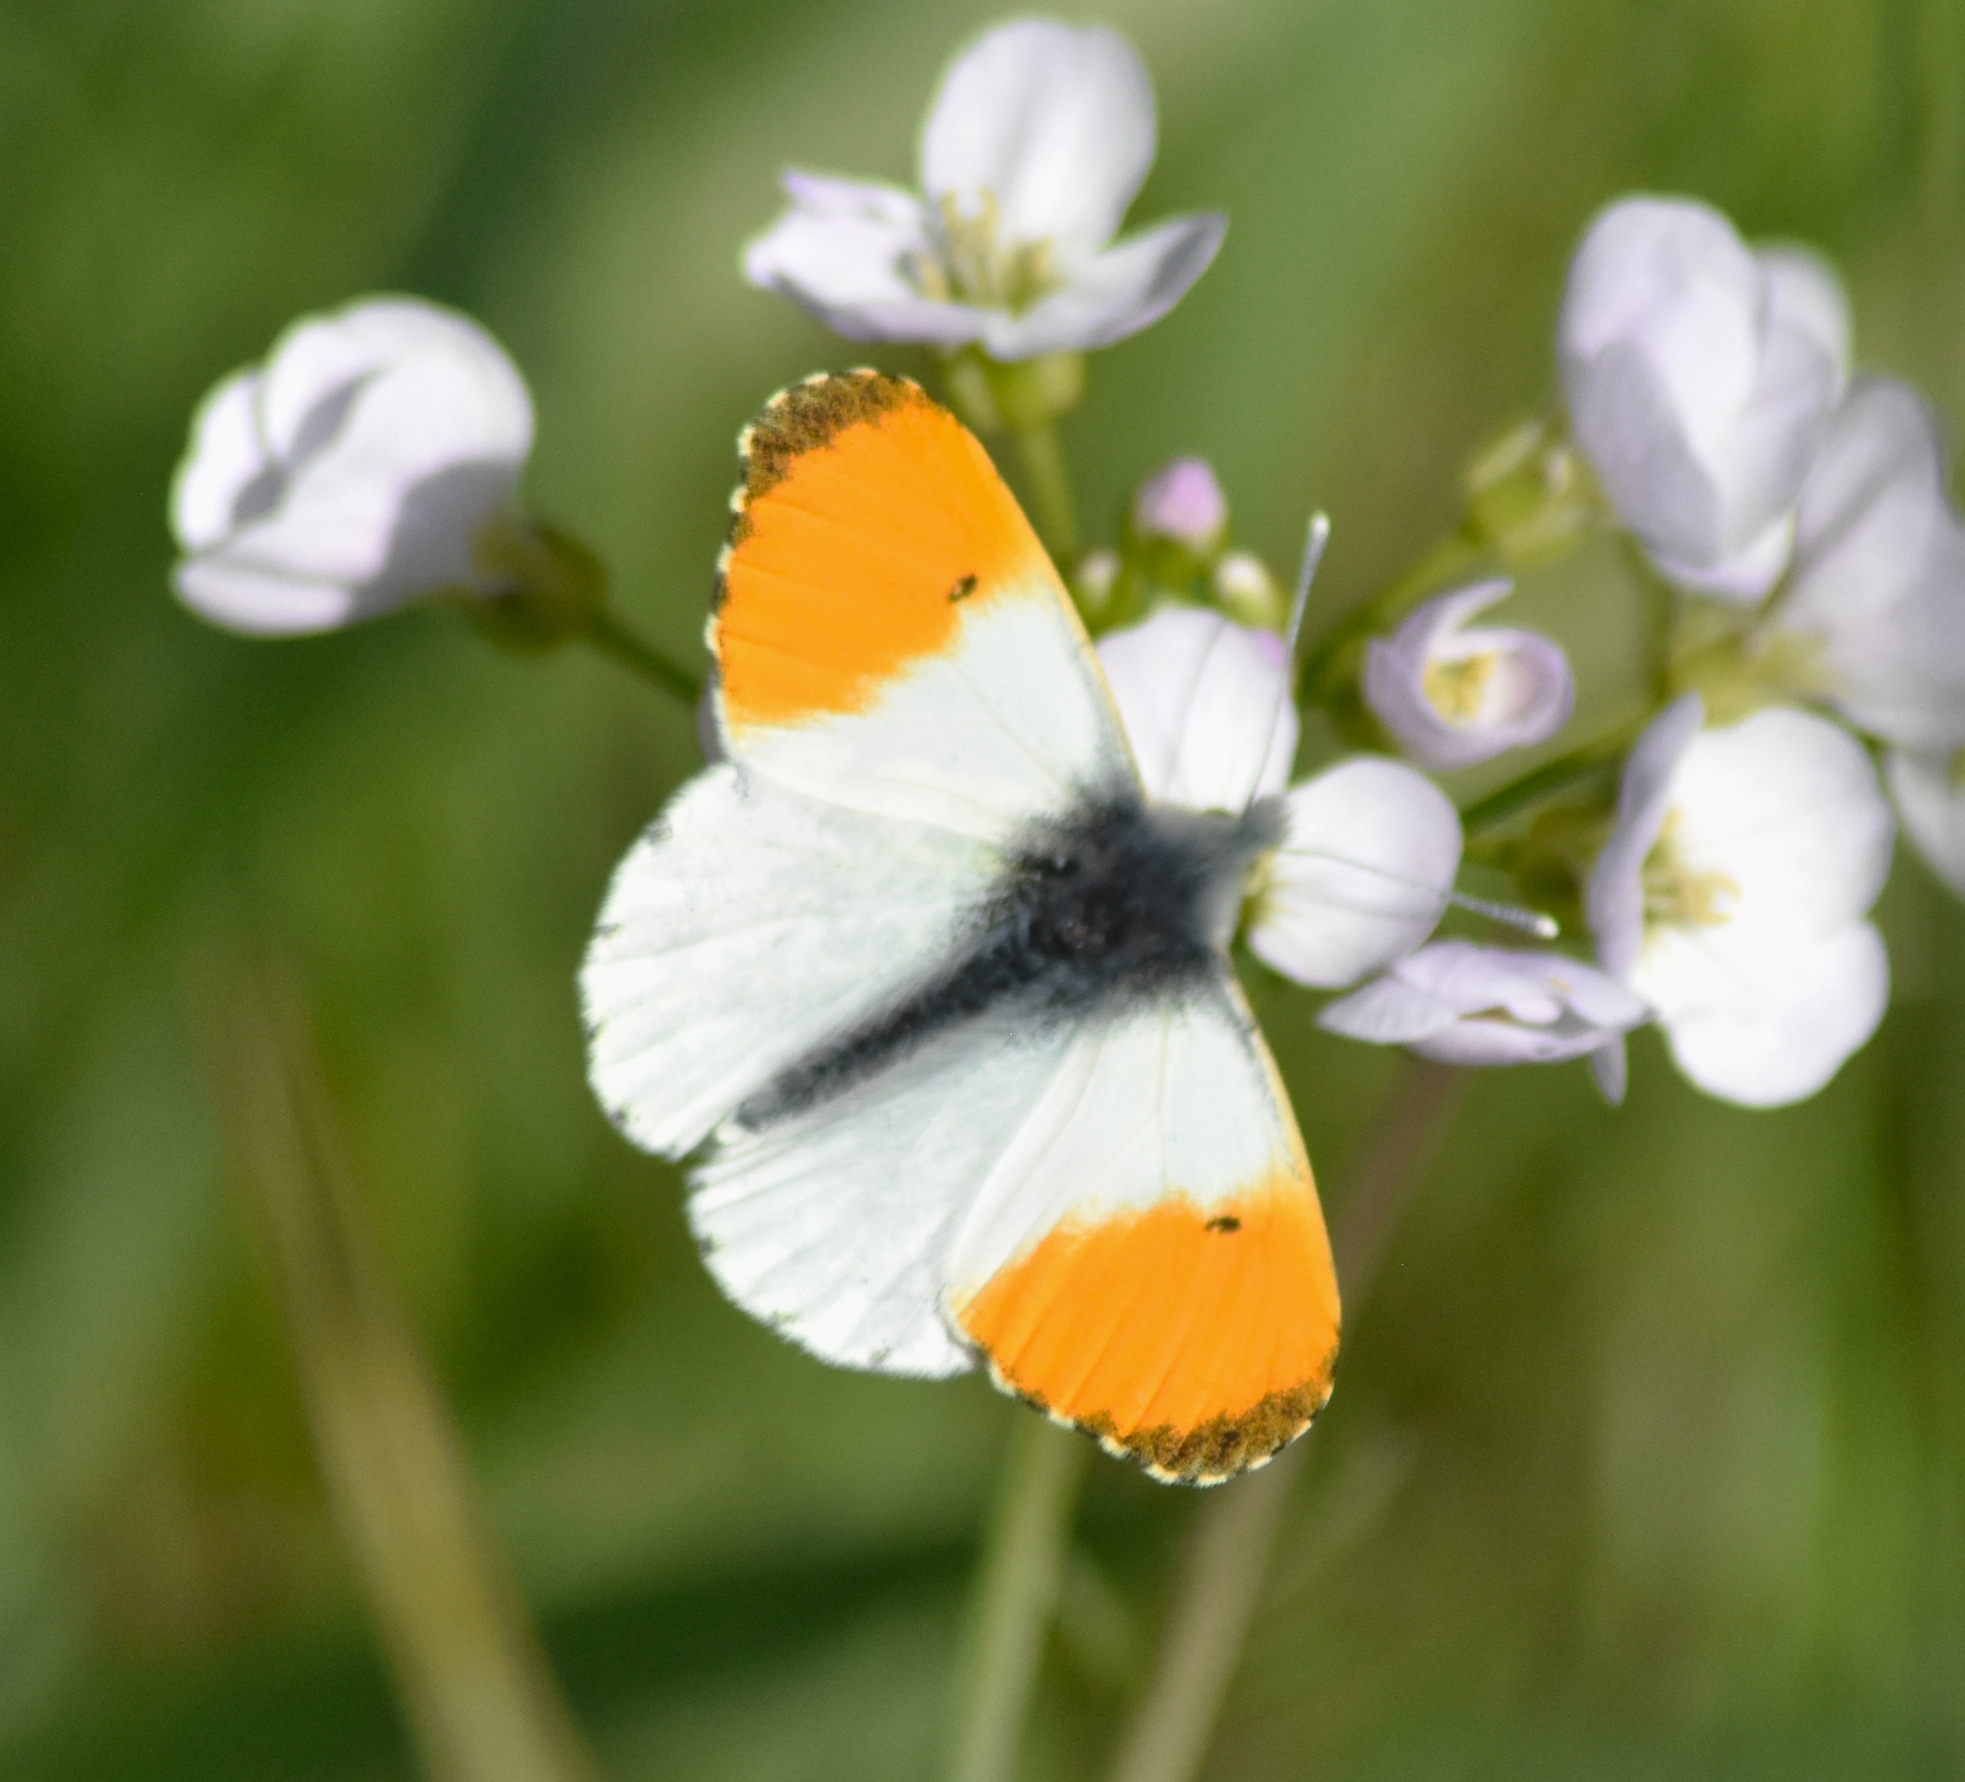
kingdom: Animalia
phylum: Arthropoda
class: Insecta
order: Lepidoptera
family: Pieridae
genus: Anthocharis
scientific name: Anthocharis cardamines
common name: Orange-tip
